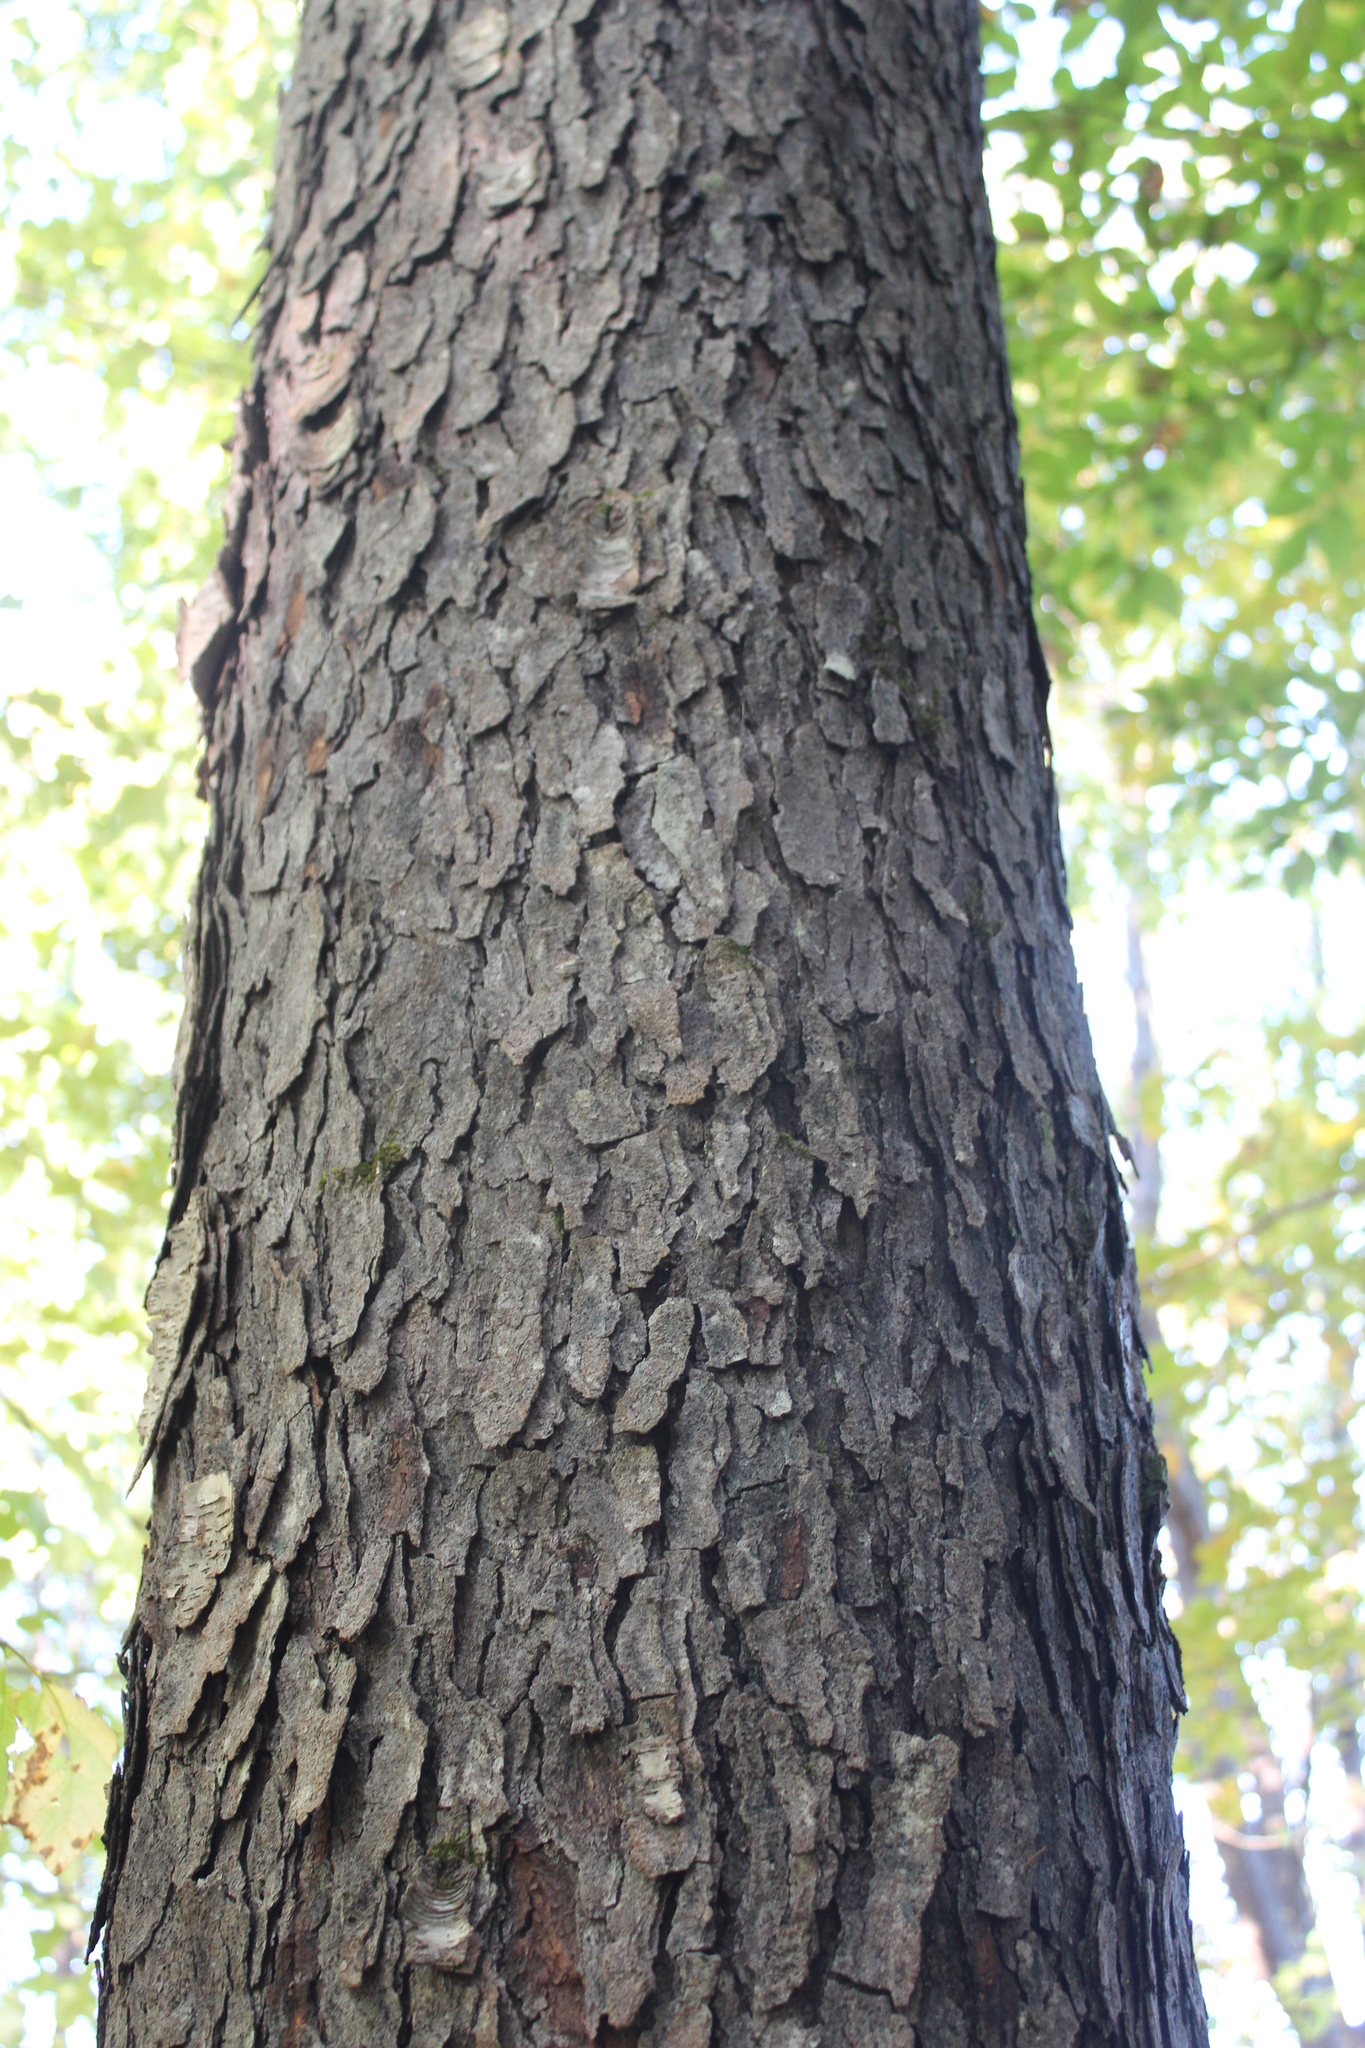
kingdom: Plantae
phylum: Tracheophyta
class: Magnoliopsida
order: Rosales
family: Rosaceae
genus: Prunus
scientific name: Prunus serotina
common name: Black cherry
